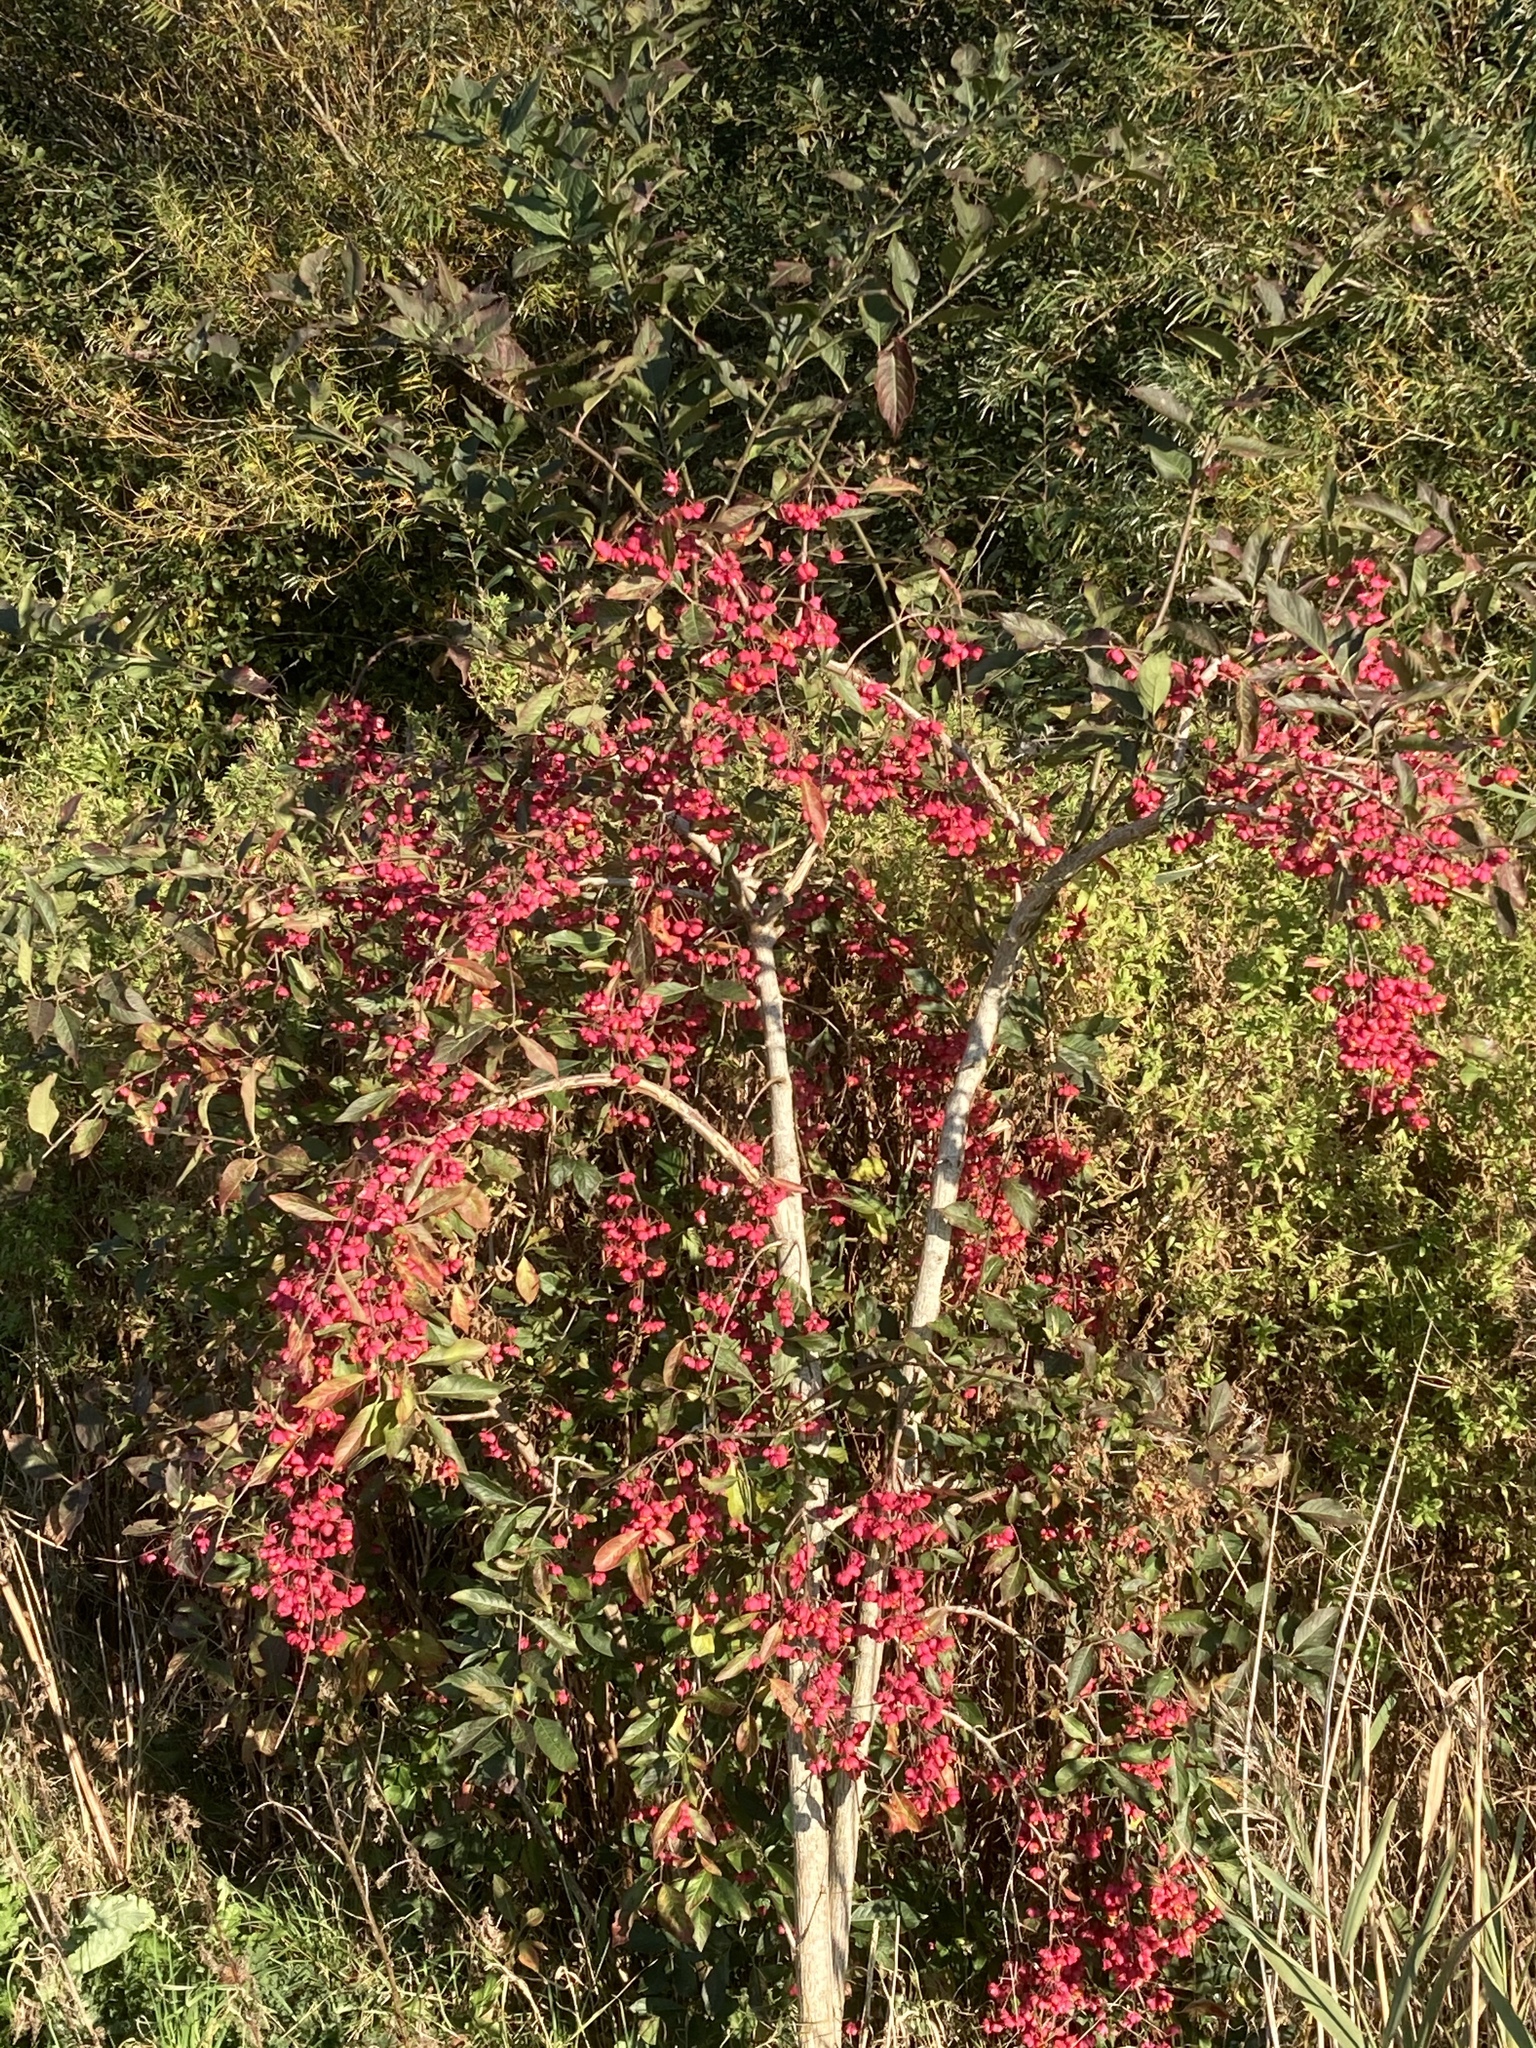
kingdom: Plantae
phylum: Tracheophyta
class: Magnoliopsida
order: Celastrales
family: Celastraceae
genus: Euonymus
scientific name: Euonymus europaeus
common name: Spindle
